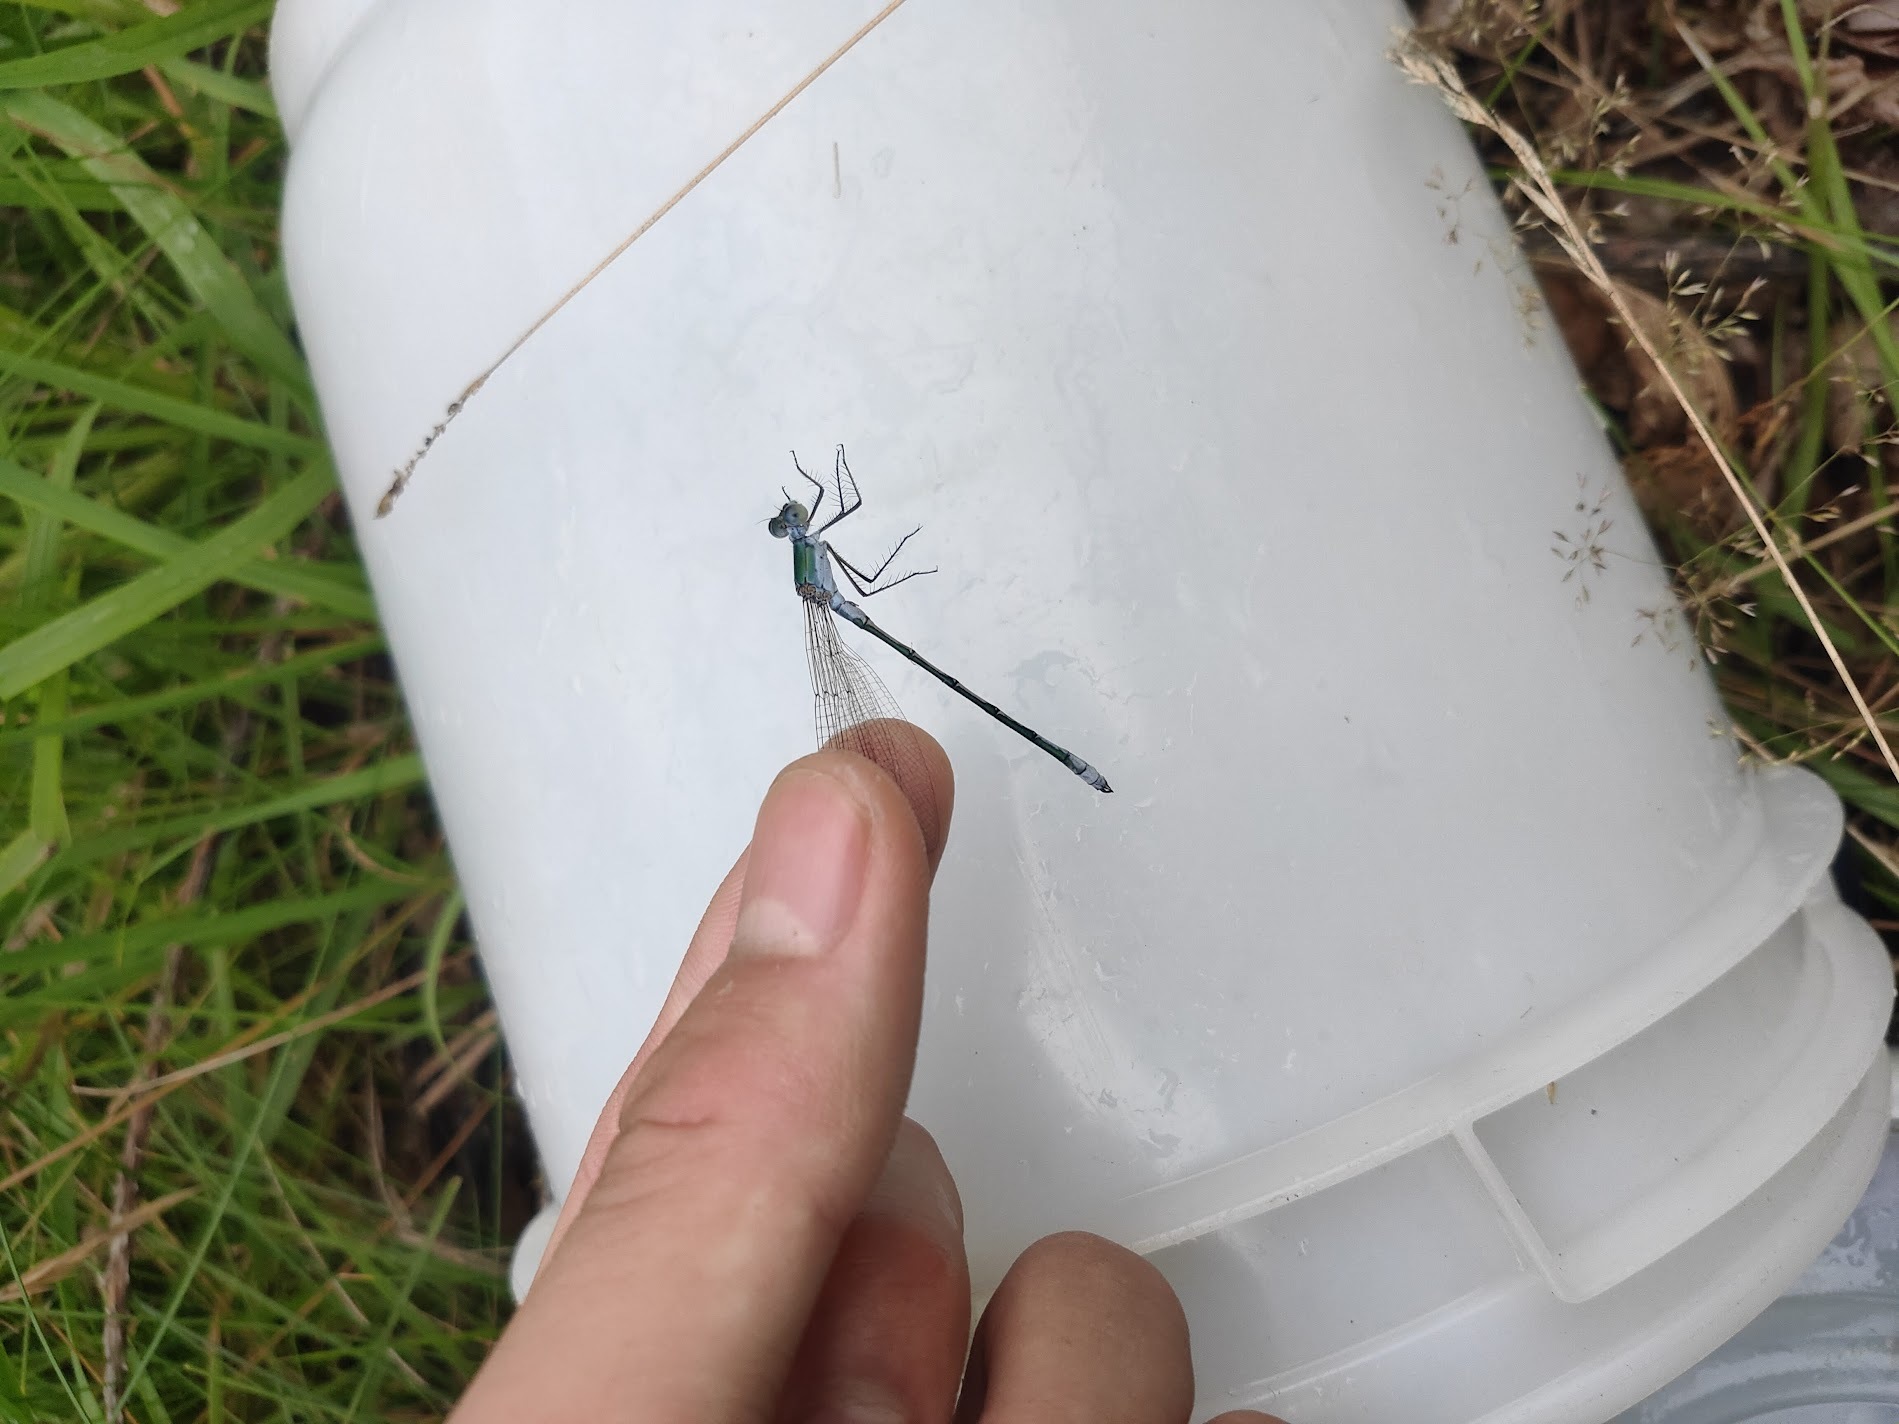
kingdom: Animalia
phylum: Arthropoda
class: Insecta
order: Odonata
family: Lestidae
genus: Lestes
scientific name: Lestes sponsa
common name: Common spreadwing
